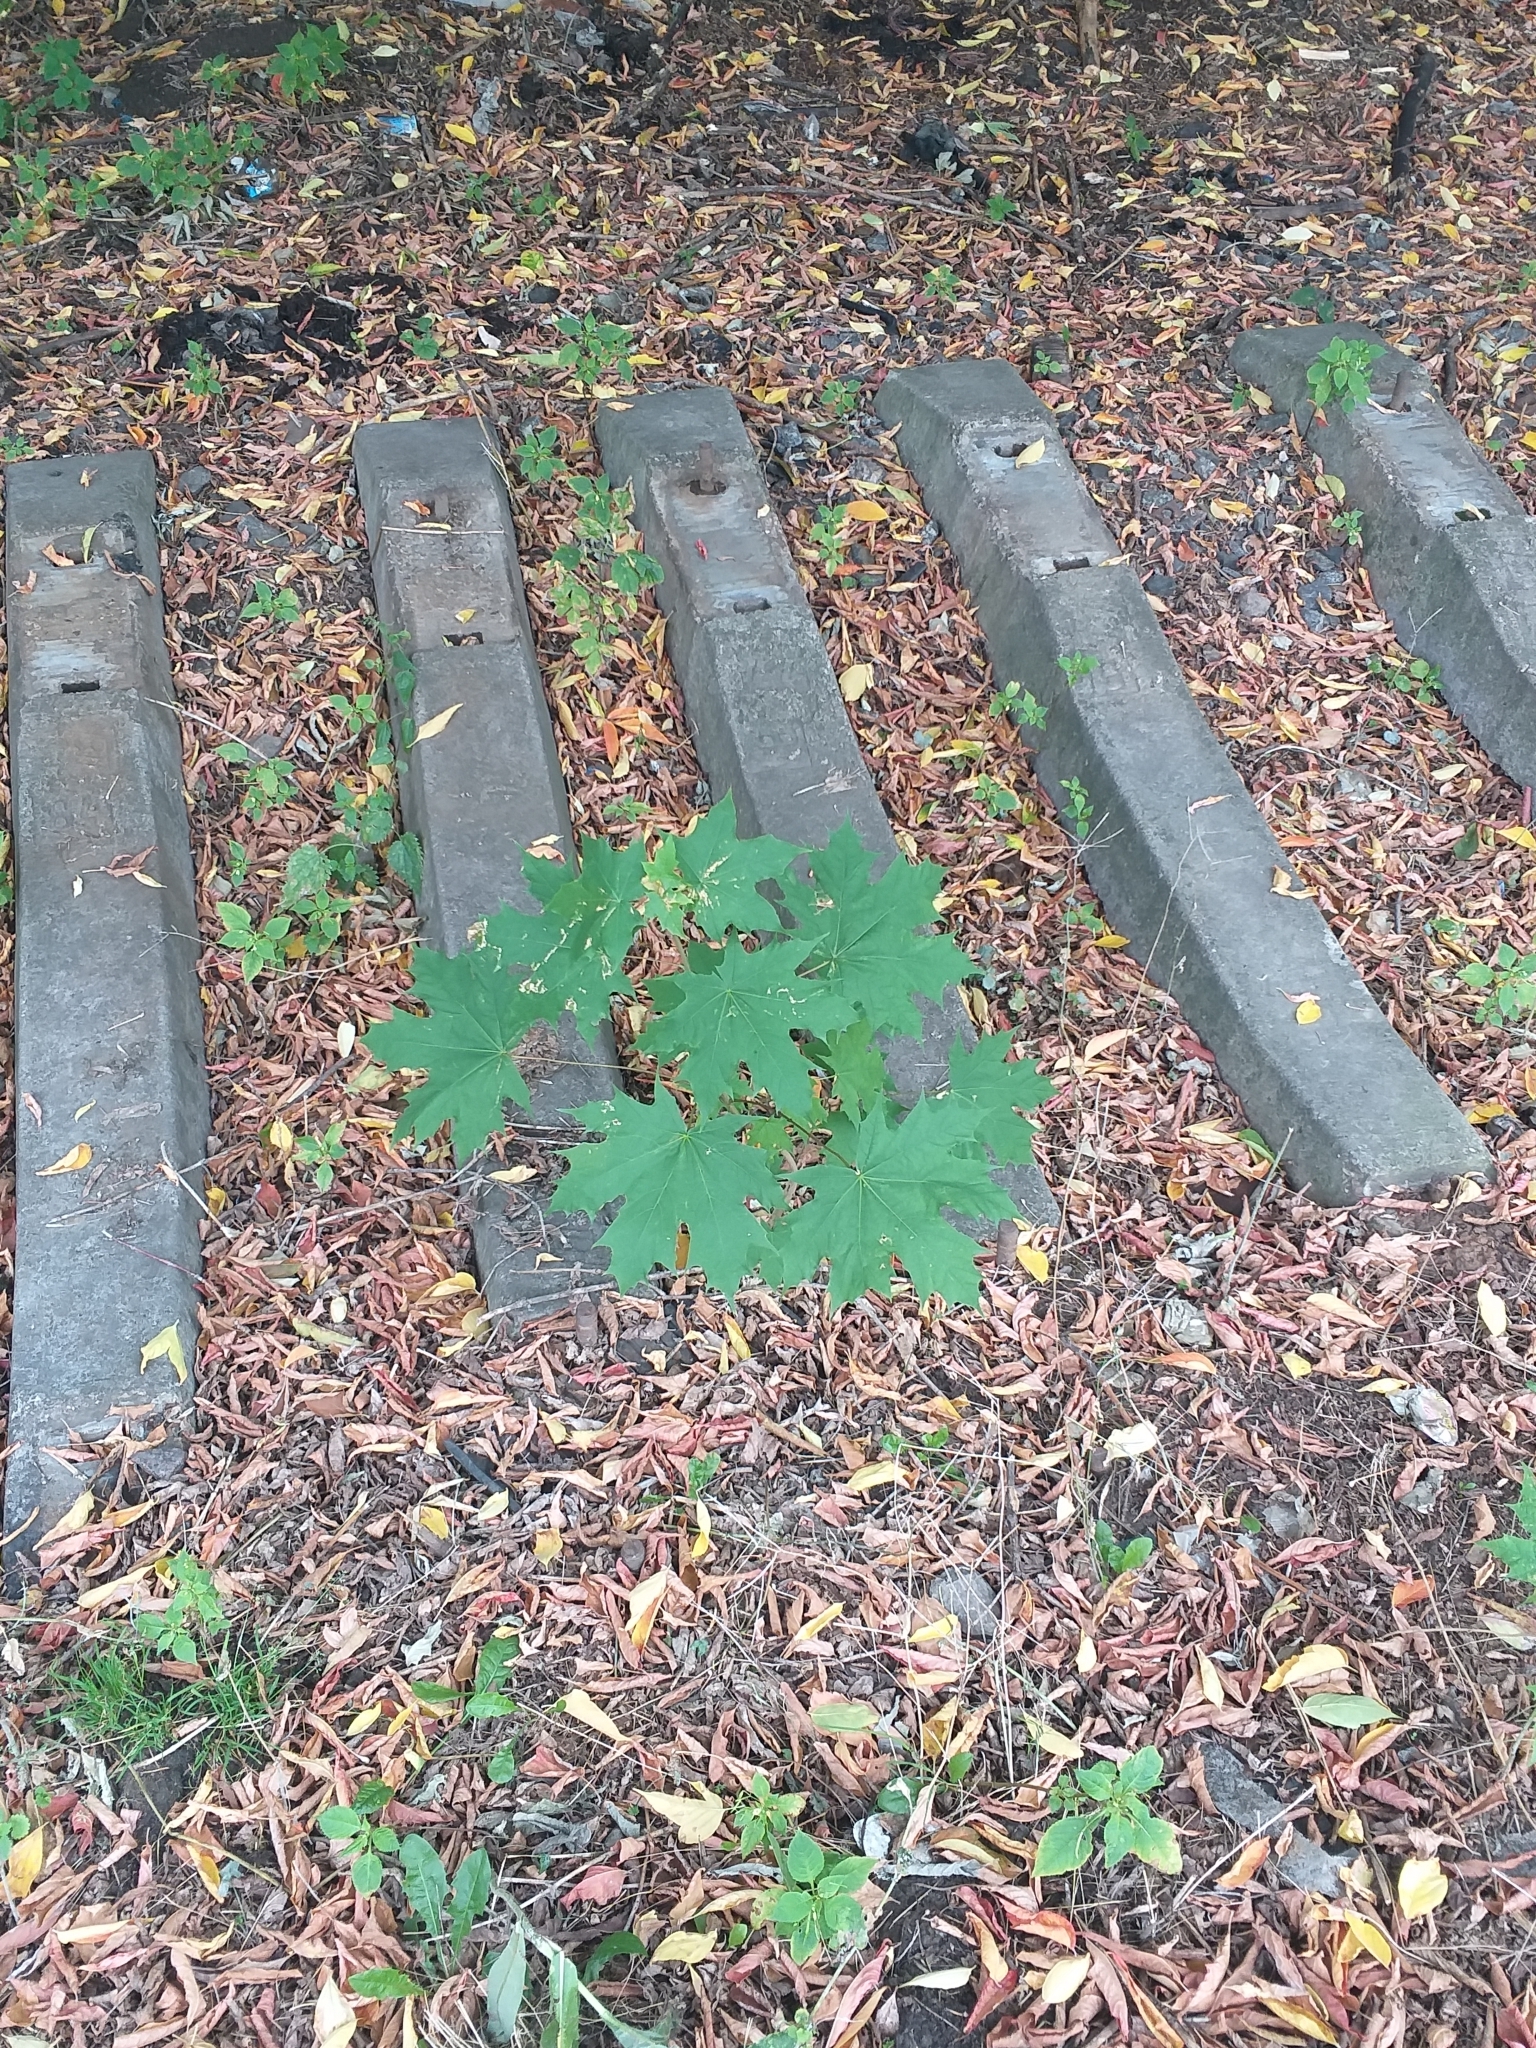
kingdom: Plantae
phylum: Tracheophyta
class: Magnoliopsida
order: Sapindales
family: Sapindaceae
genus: Acer
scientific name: Acer platanoides
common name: Norway maple
